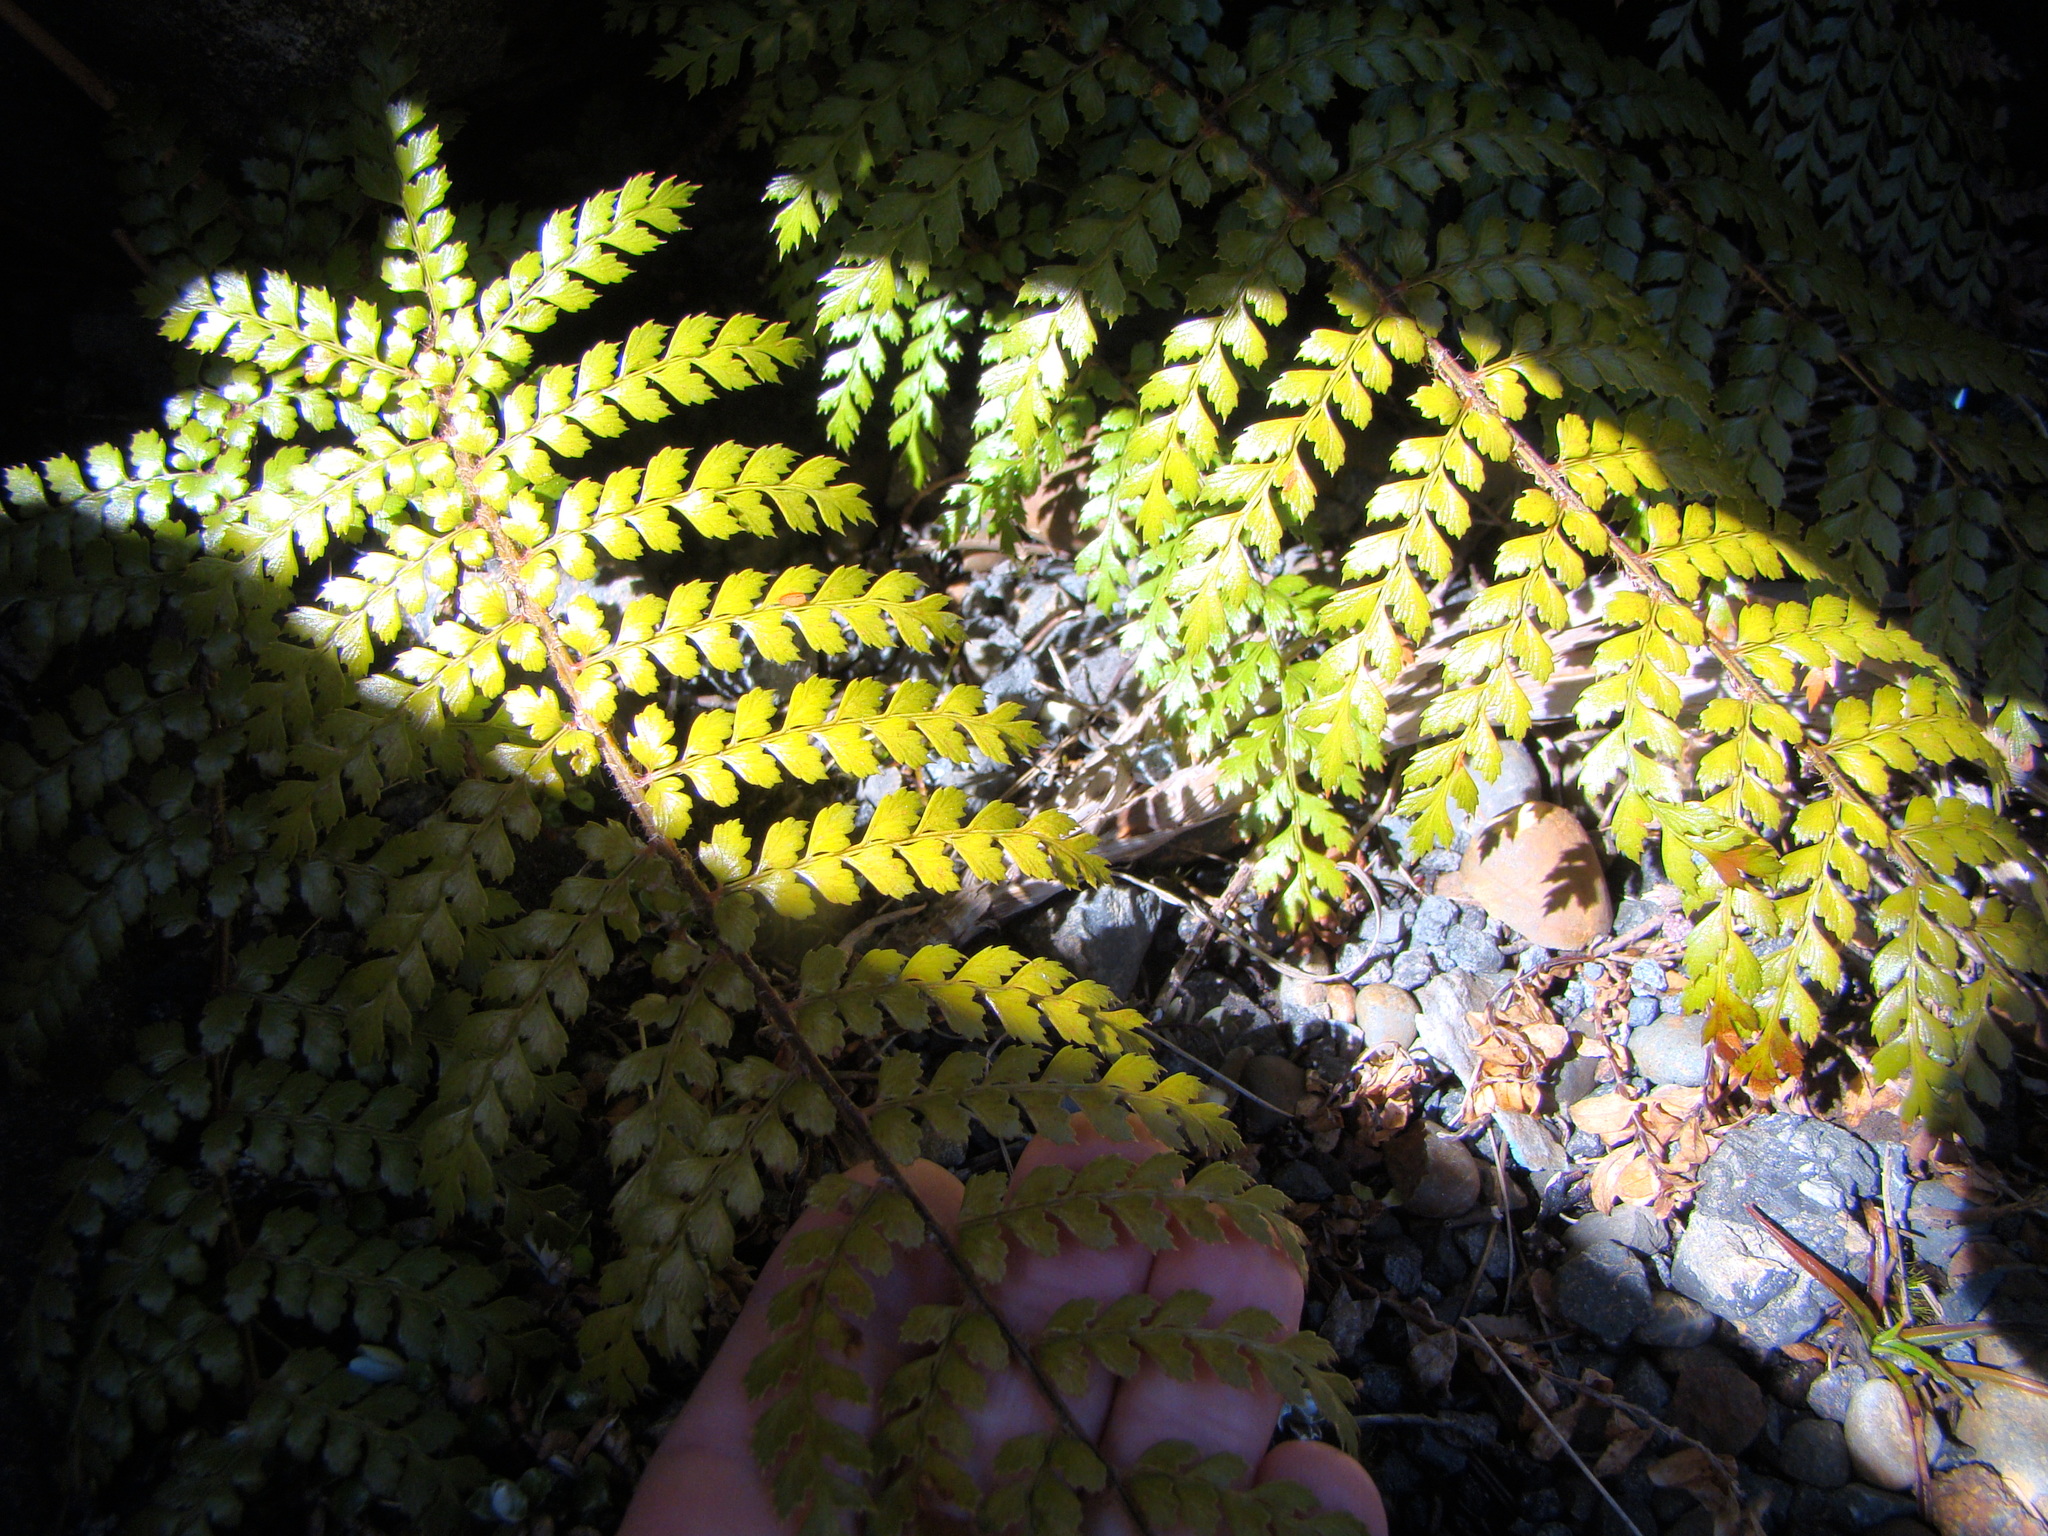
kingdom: Plantae
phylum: Tracheophyta
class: Polypodiopsida
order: Polypodiales
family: Dryopteridaceae
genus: Polystichum
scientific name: Polystichum vestitum
